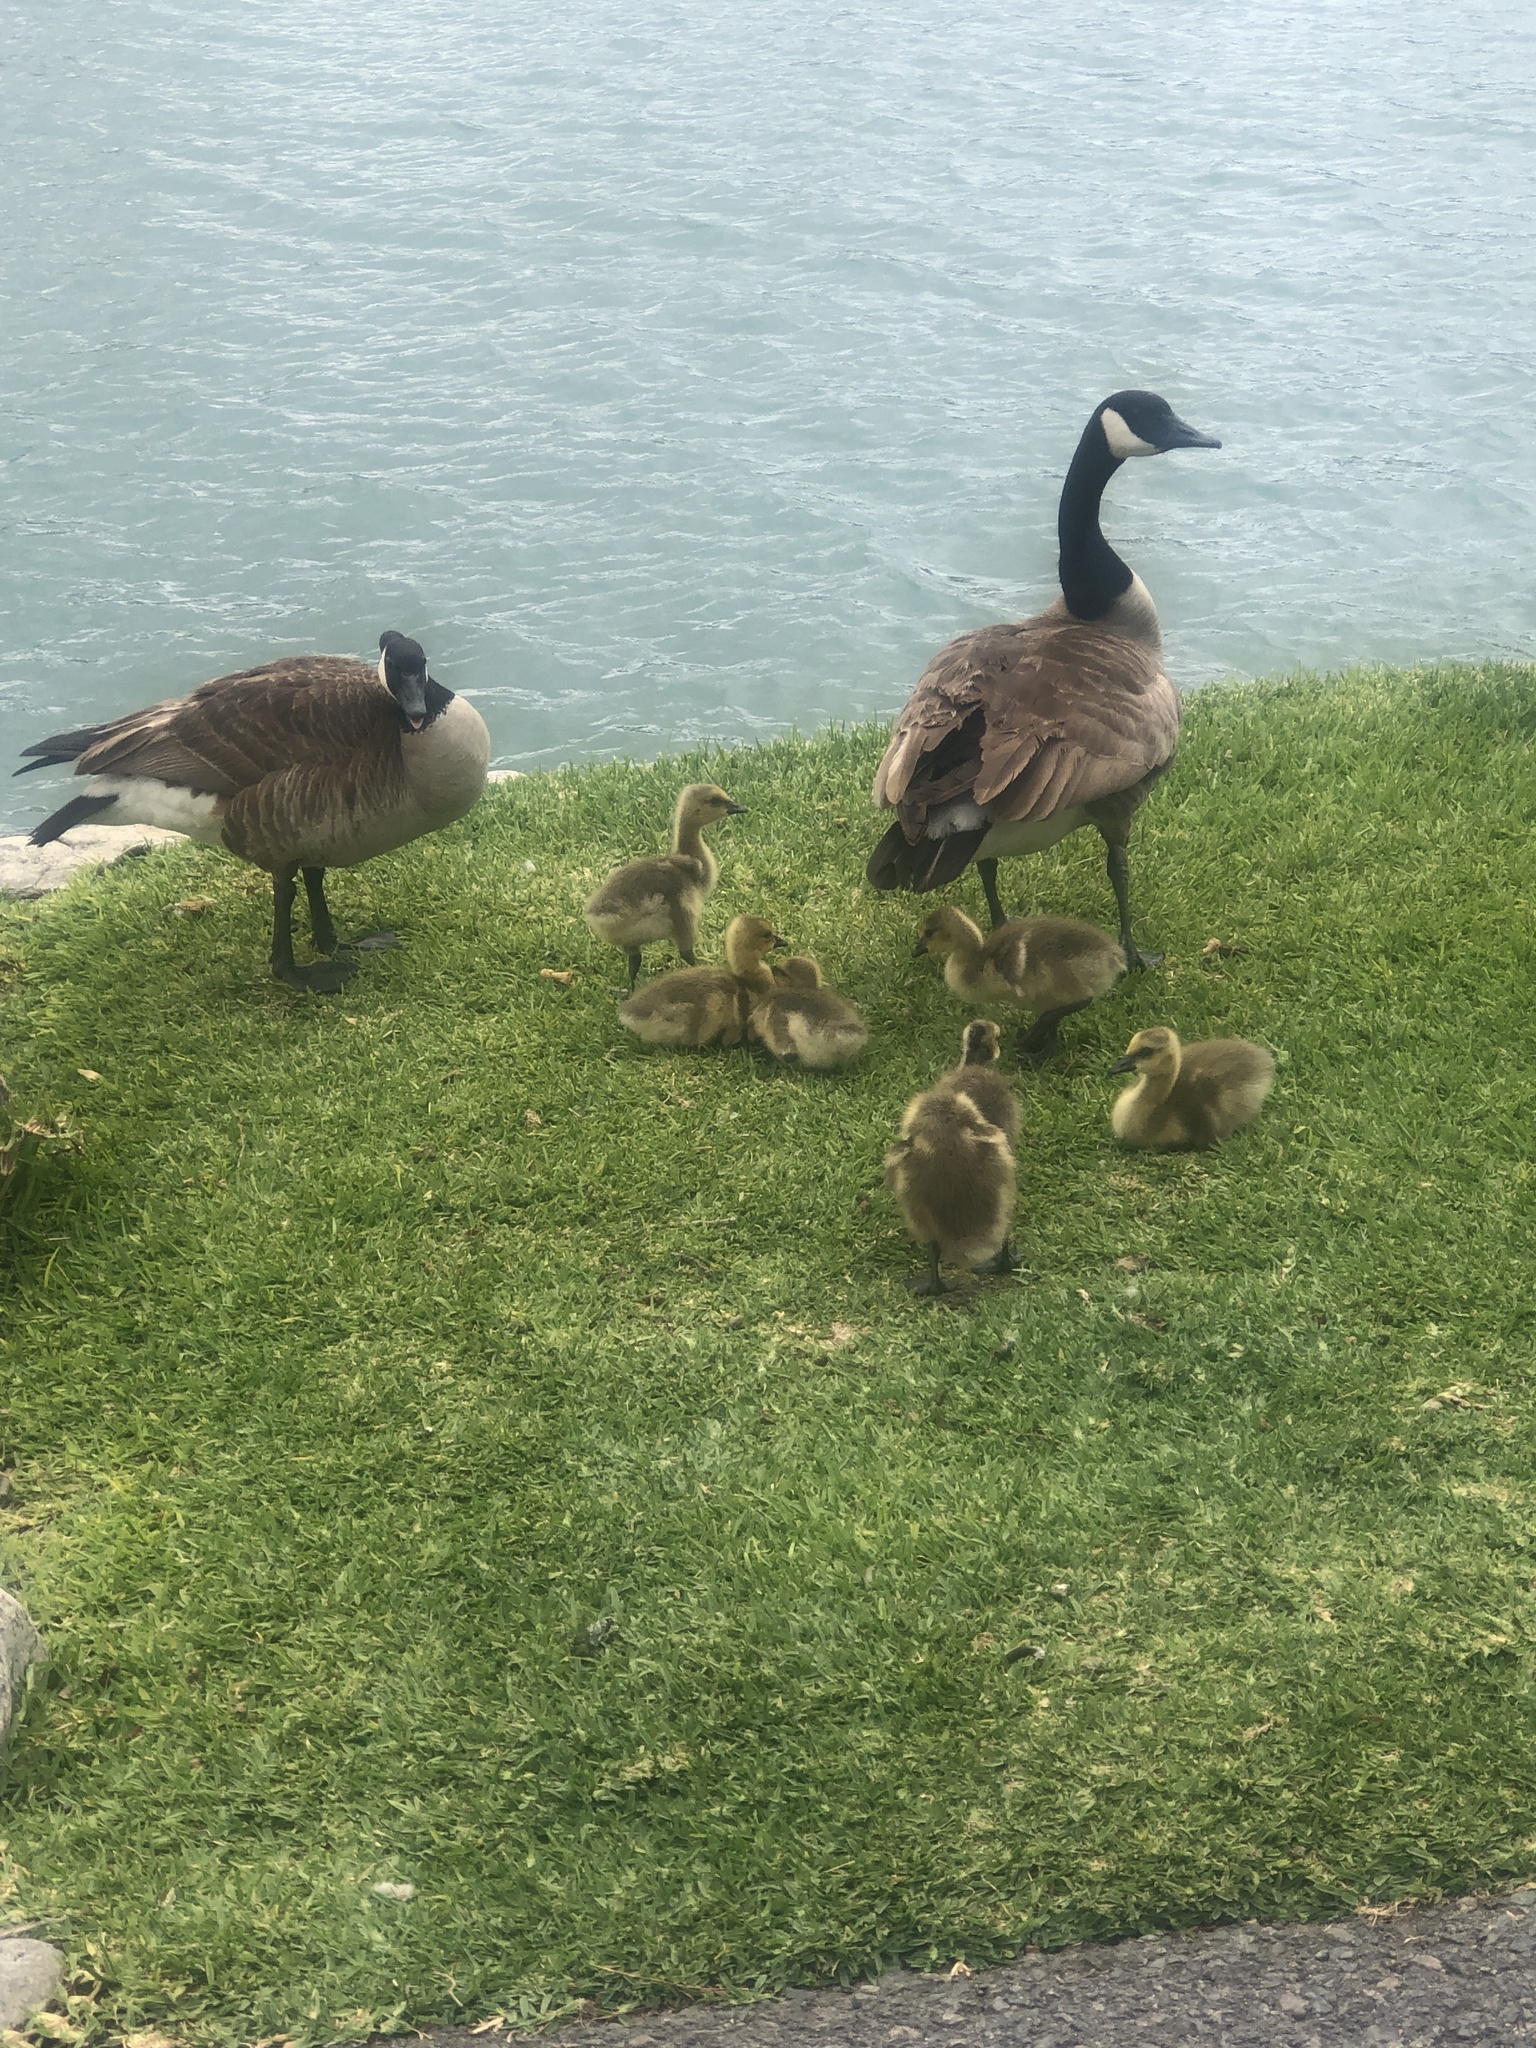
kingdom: Animalia
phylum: Chordata
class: Aves
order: Anseriformes
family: Anatidae
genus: Branta
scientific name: Branta canadensis
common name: Canada goose
